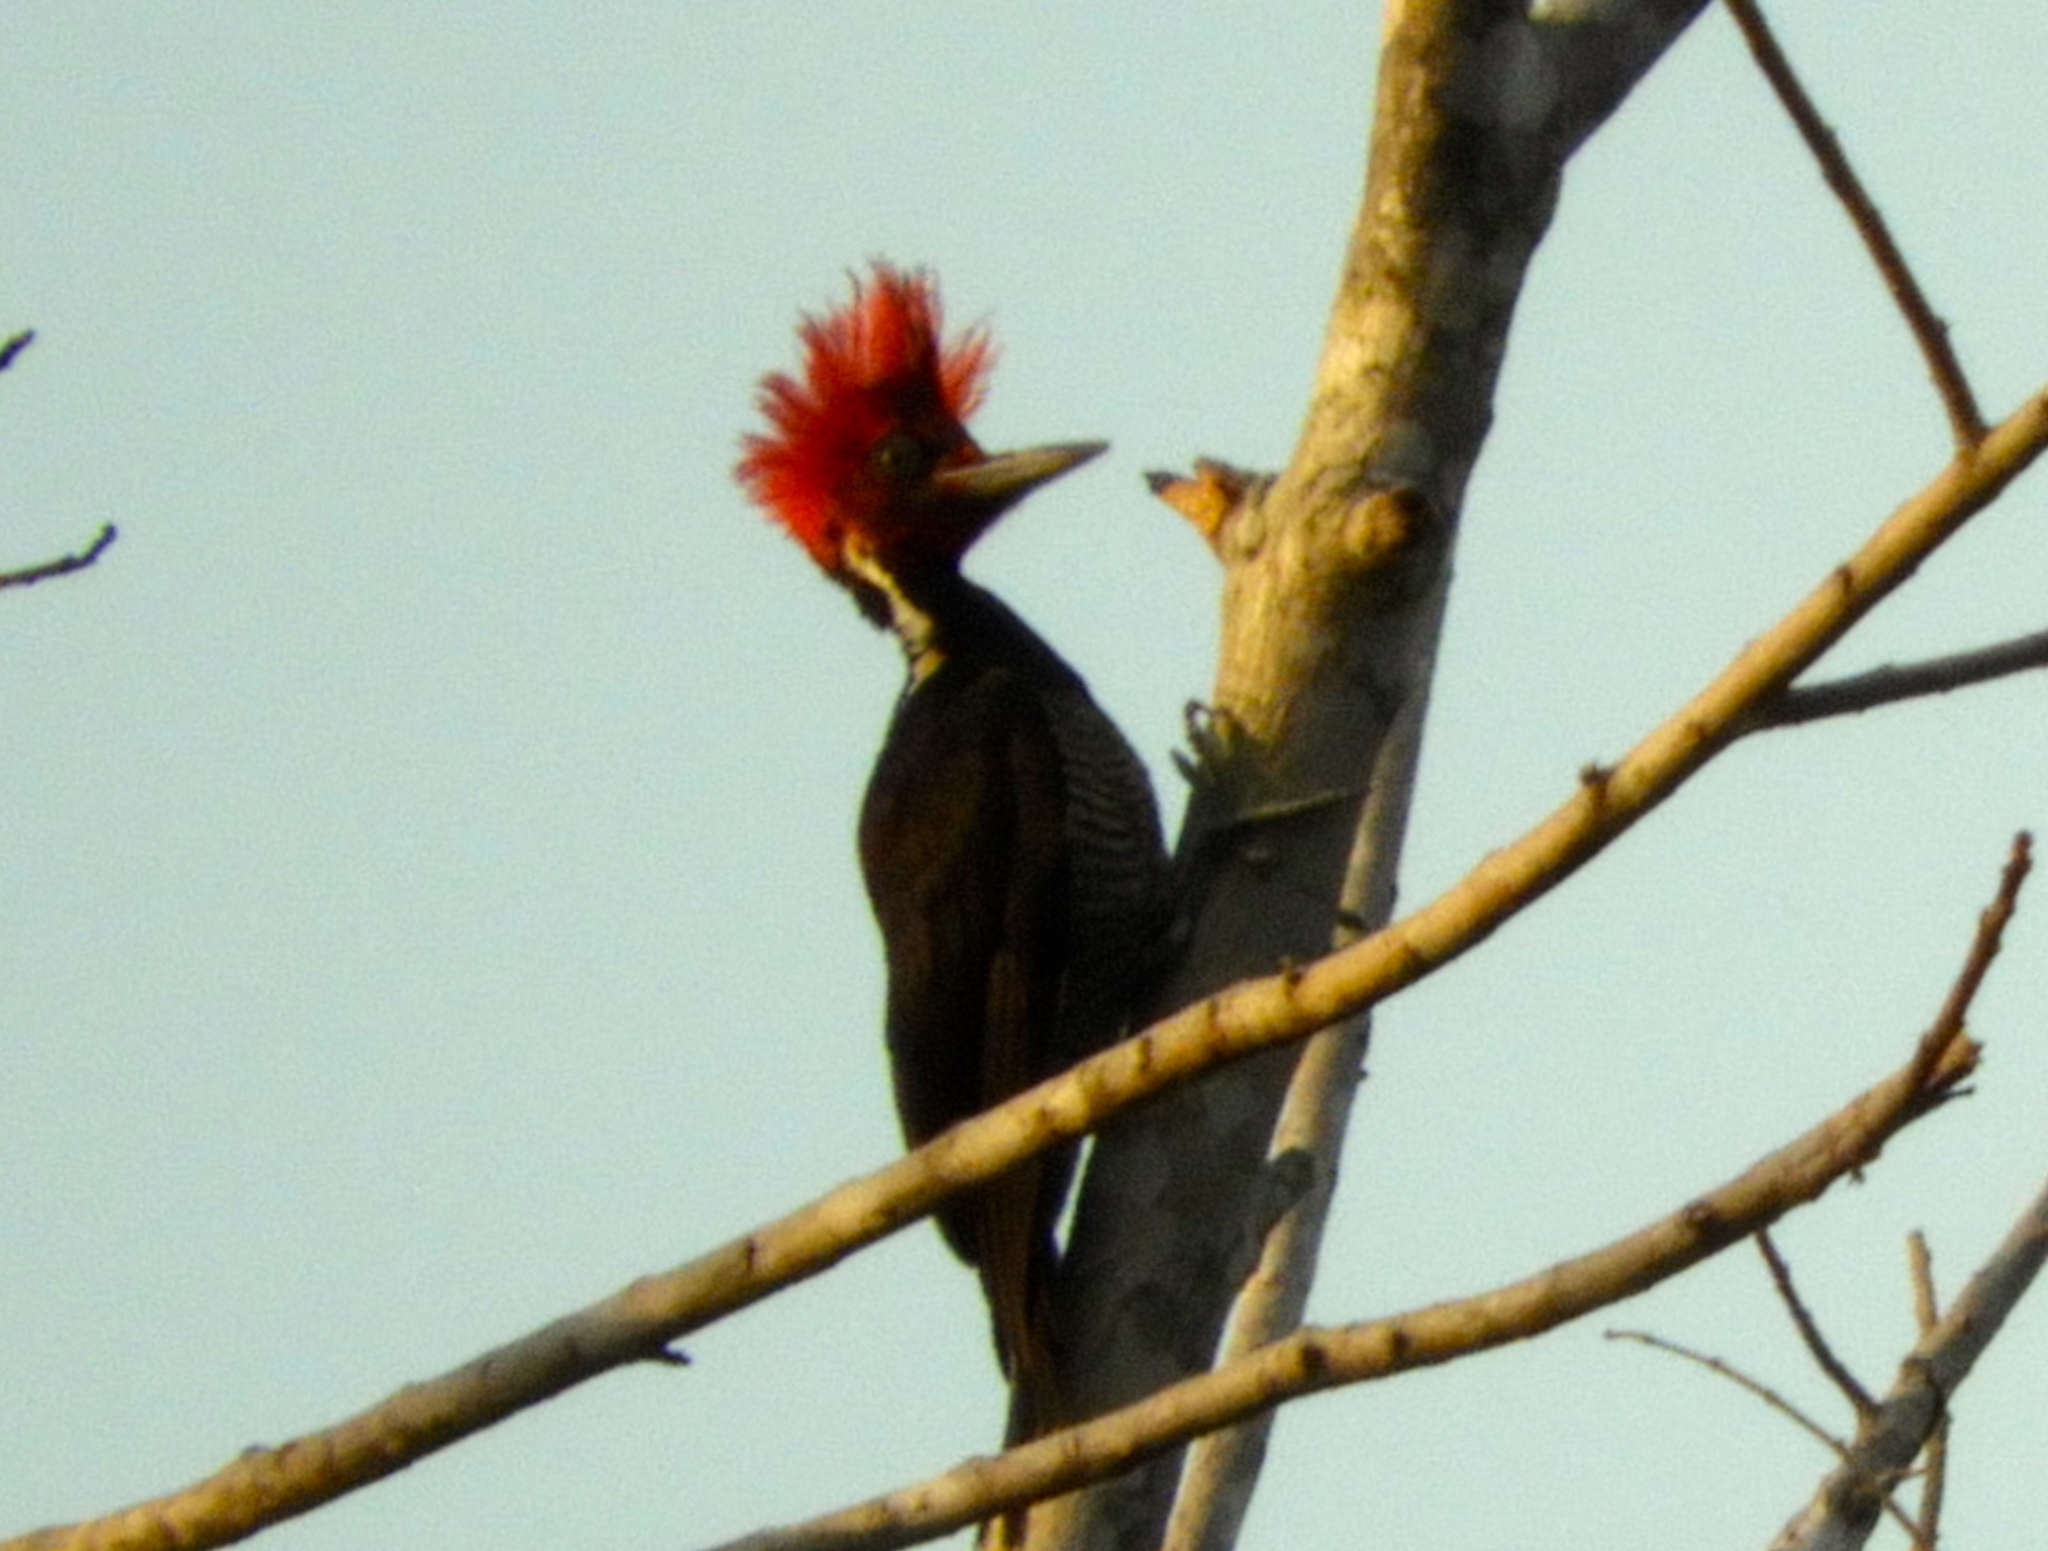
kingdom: Animalia
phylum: Chordata
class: Aves
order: Piciformes
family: Picidae
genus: Campephilus
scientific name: Campephilus guatemalensis
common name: Pale-billed woodpecker
